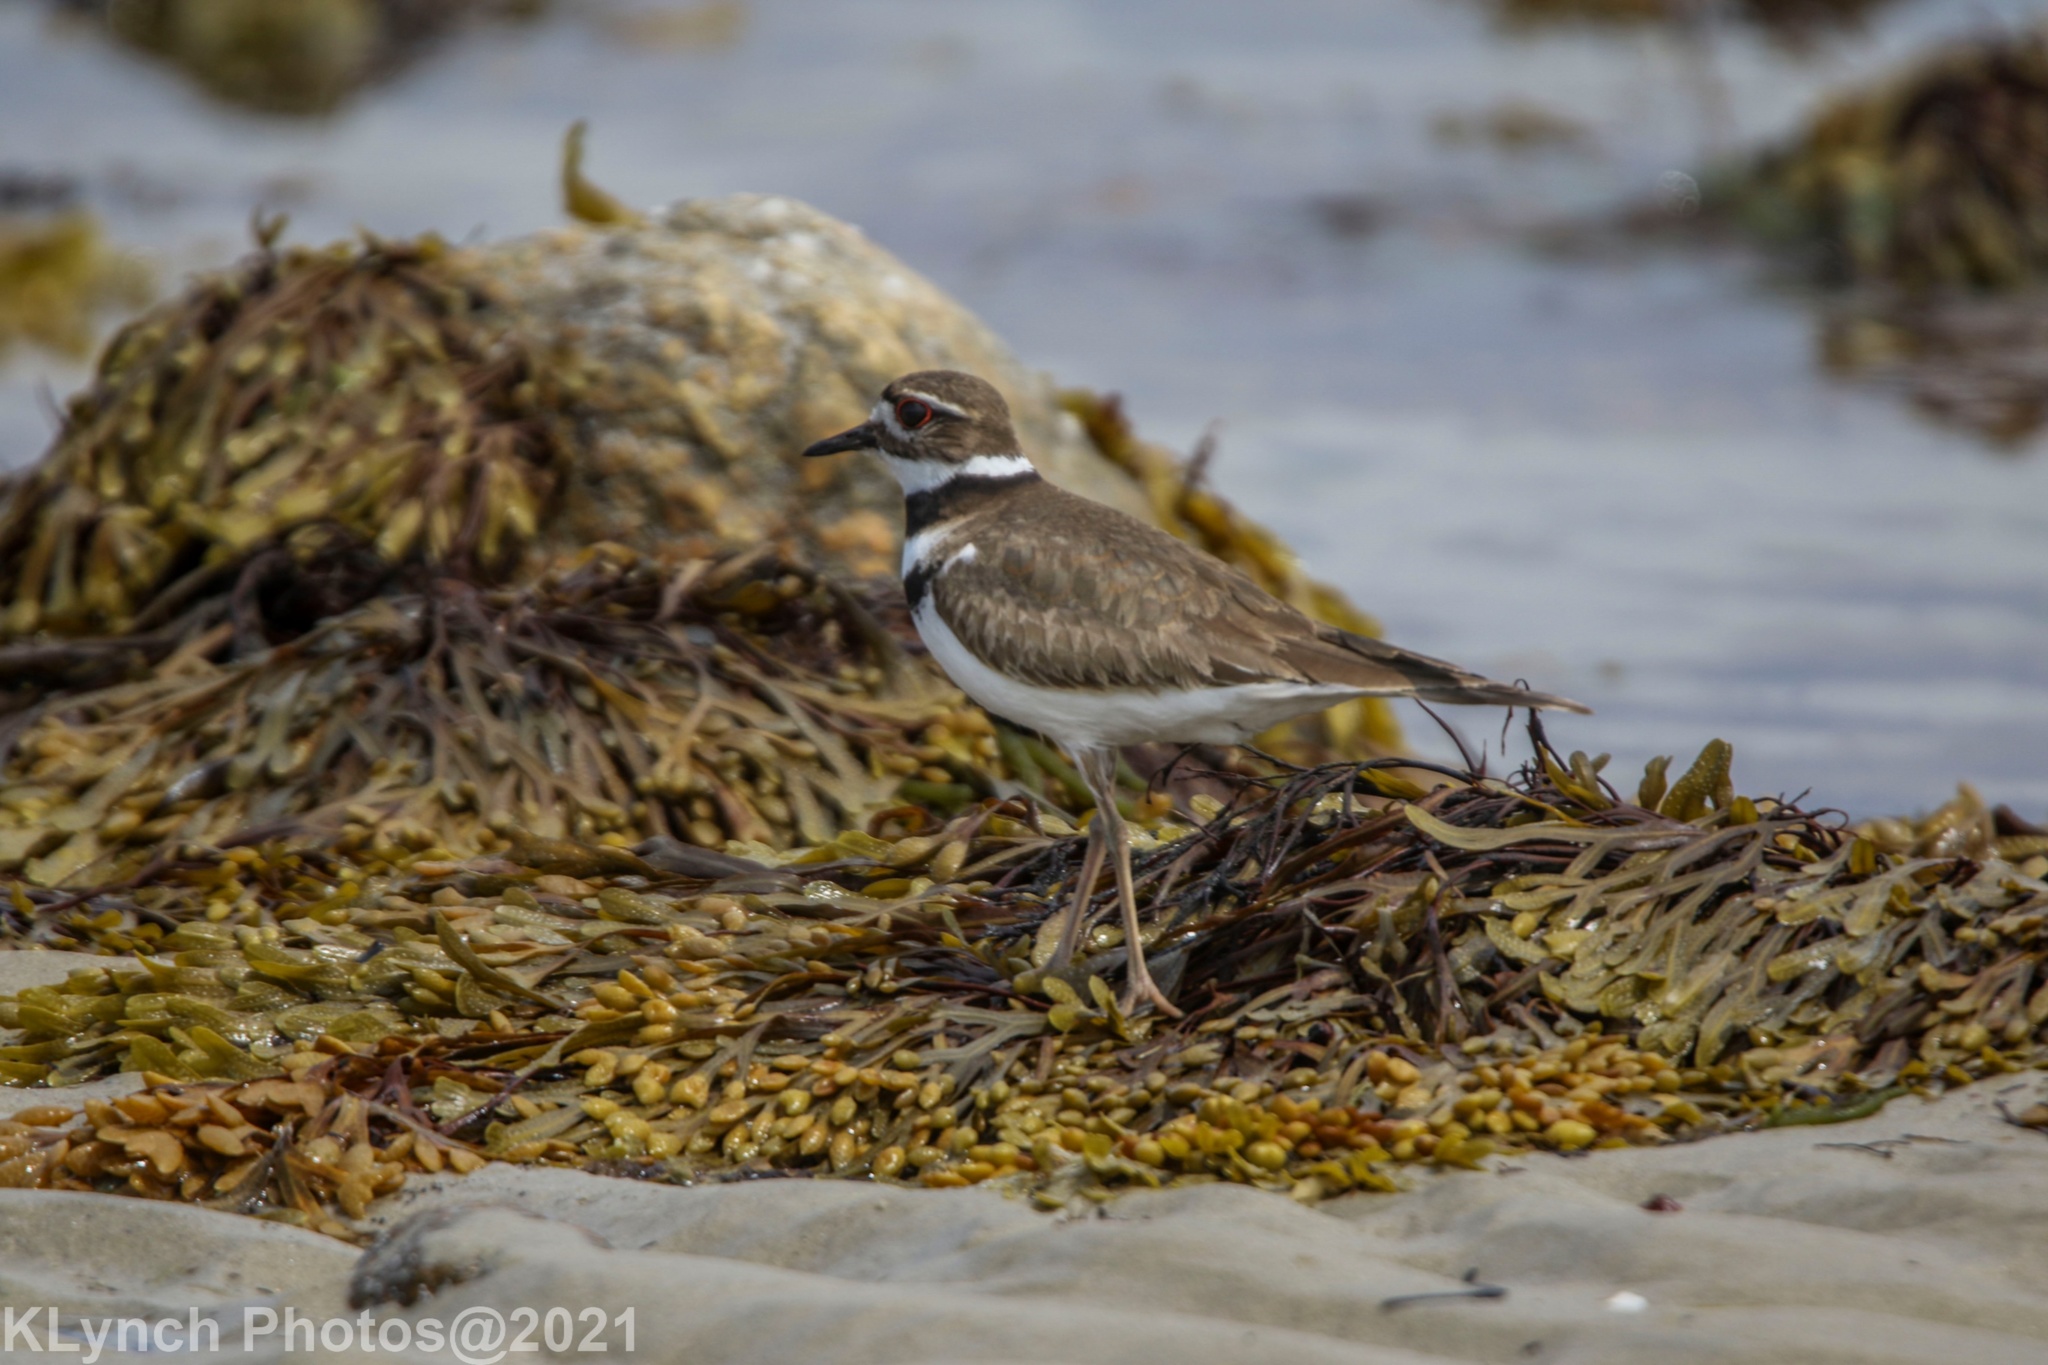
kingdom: Animalia
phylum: Chordata
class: Aves
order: Charadriiformes
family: Charadriidae
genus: Charadrius
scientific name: Charadrius vociferus
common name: Killdeer
